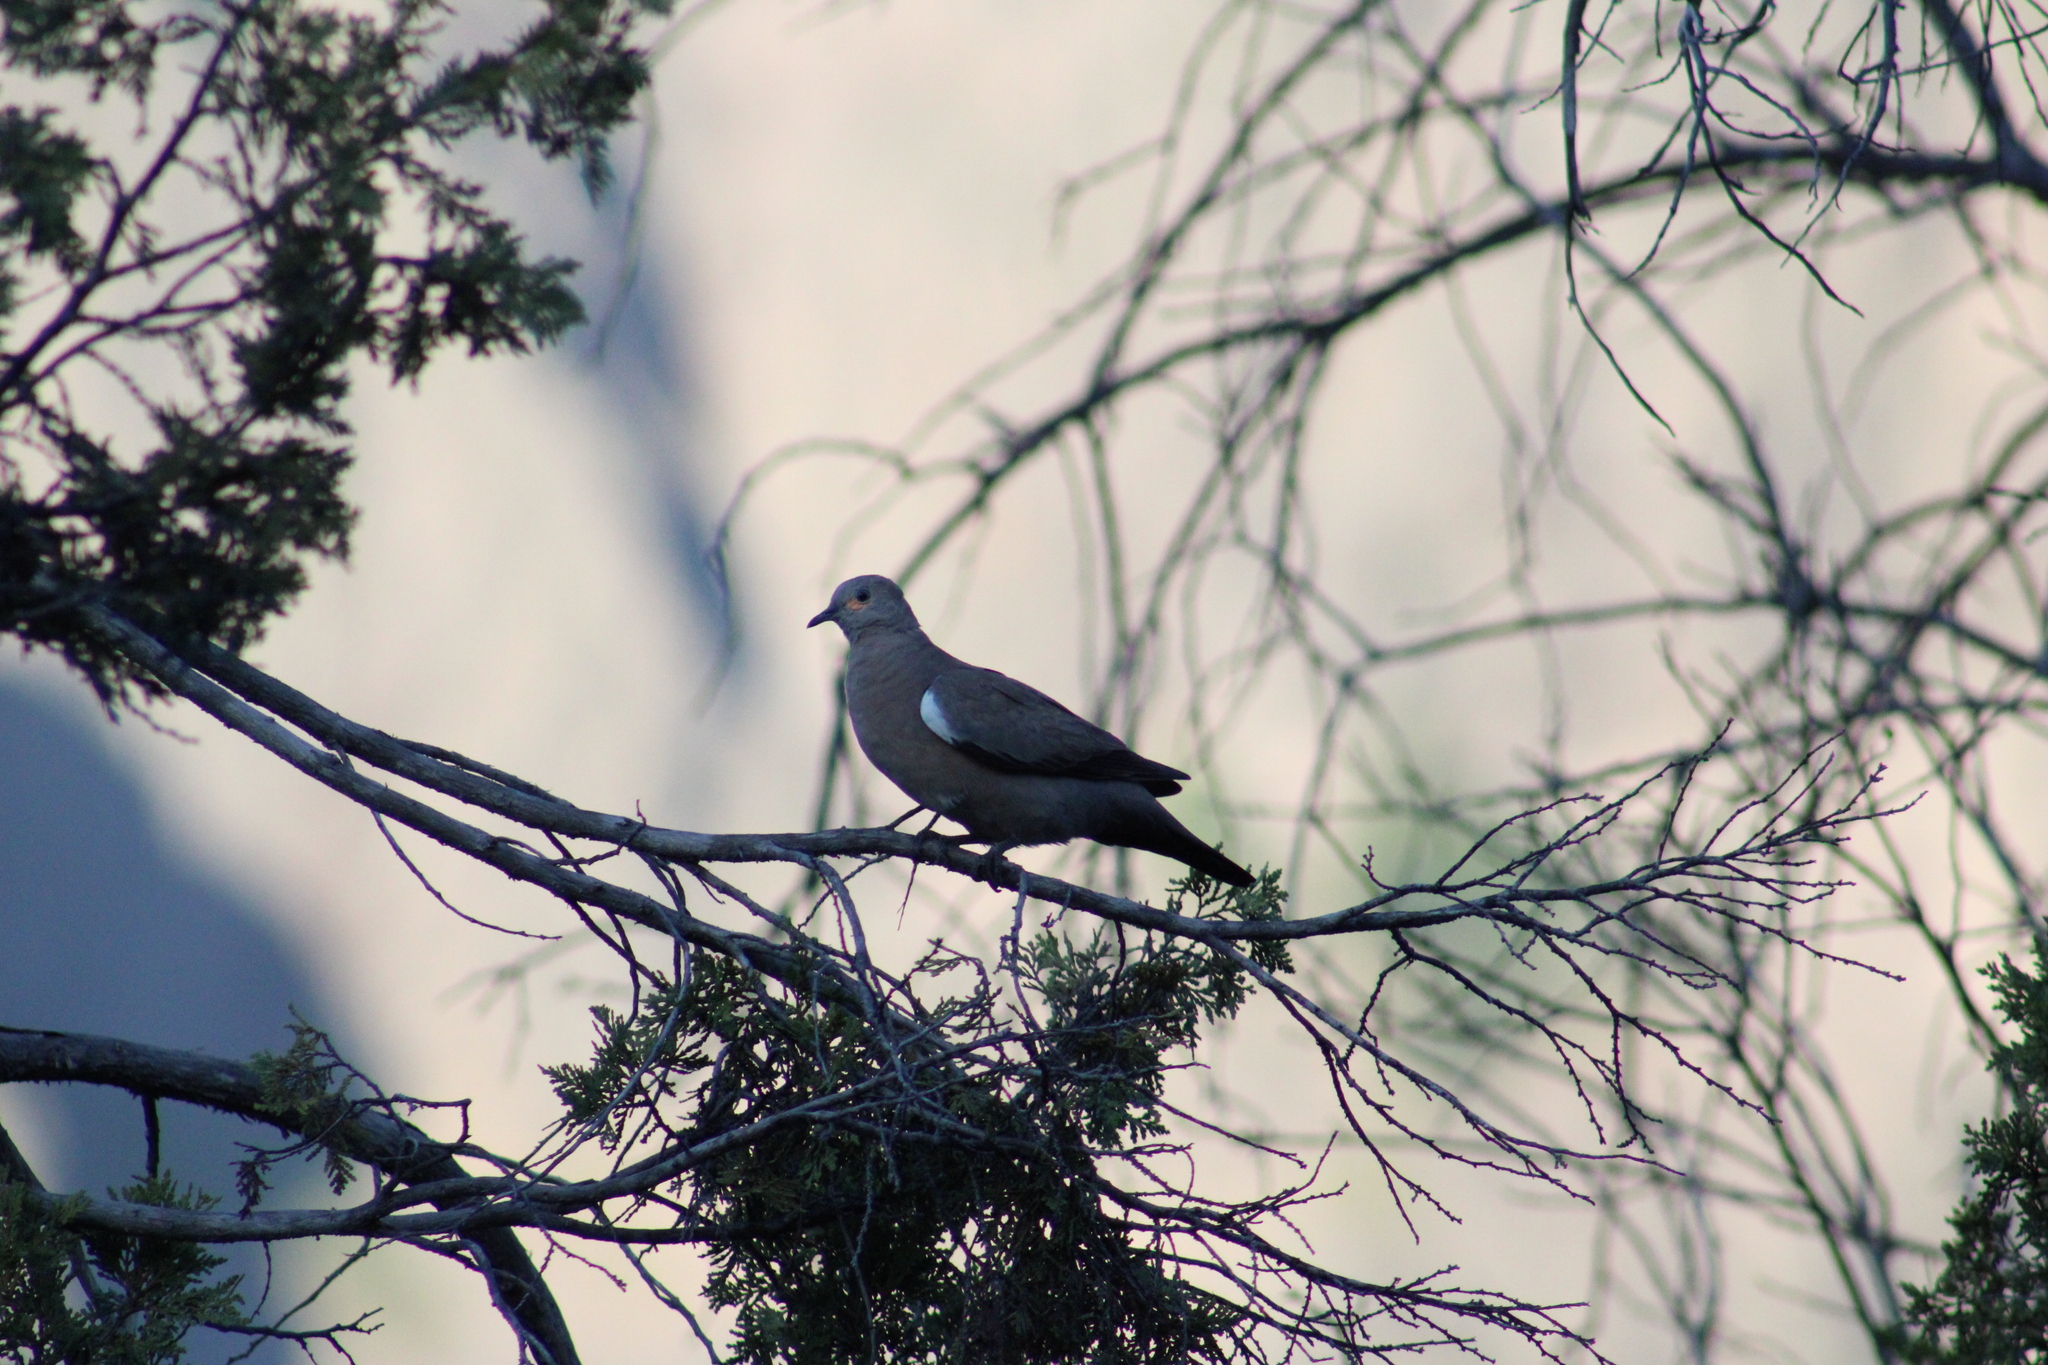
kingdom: Animalia
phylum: Chordata
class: Aves
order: Columbiformes
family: Columbidae
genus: Metriopelia
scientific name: Metriopelia melanoptera
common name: Black-winged ground dove
